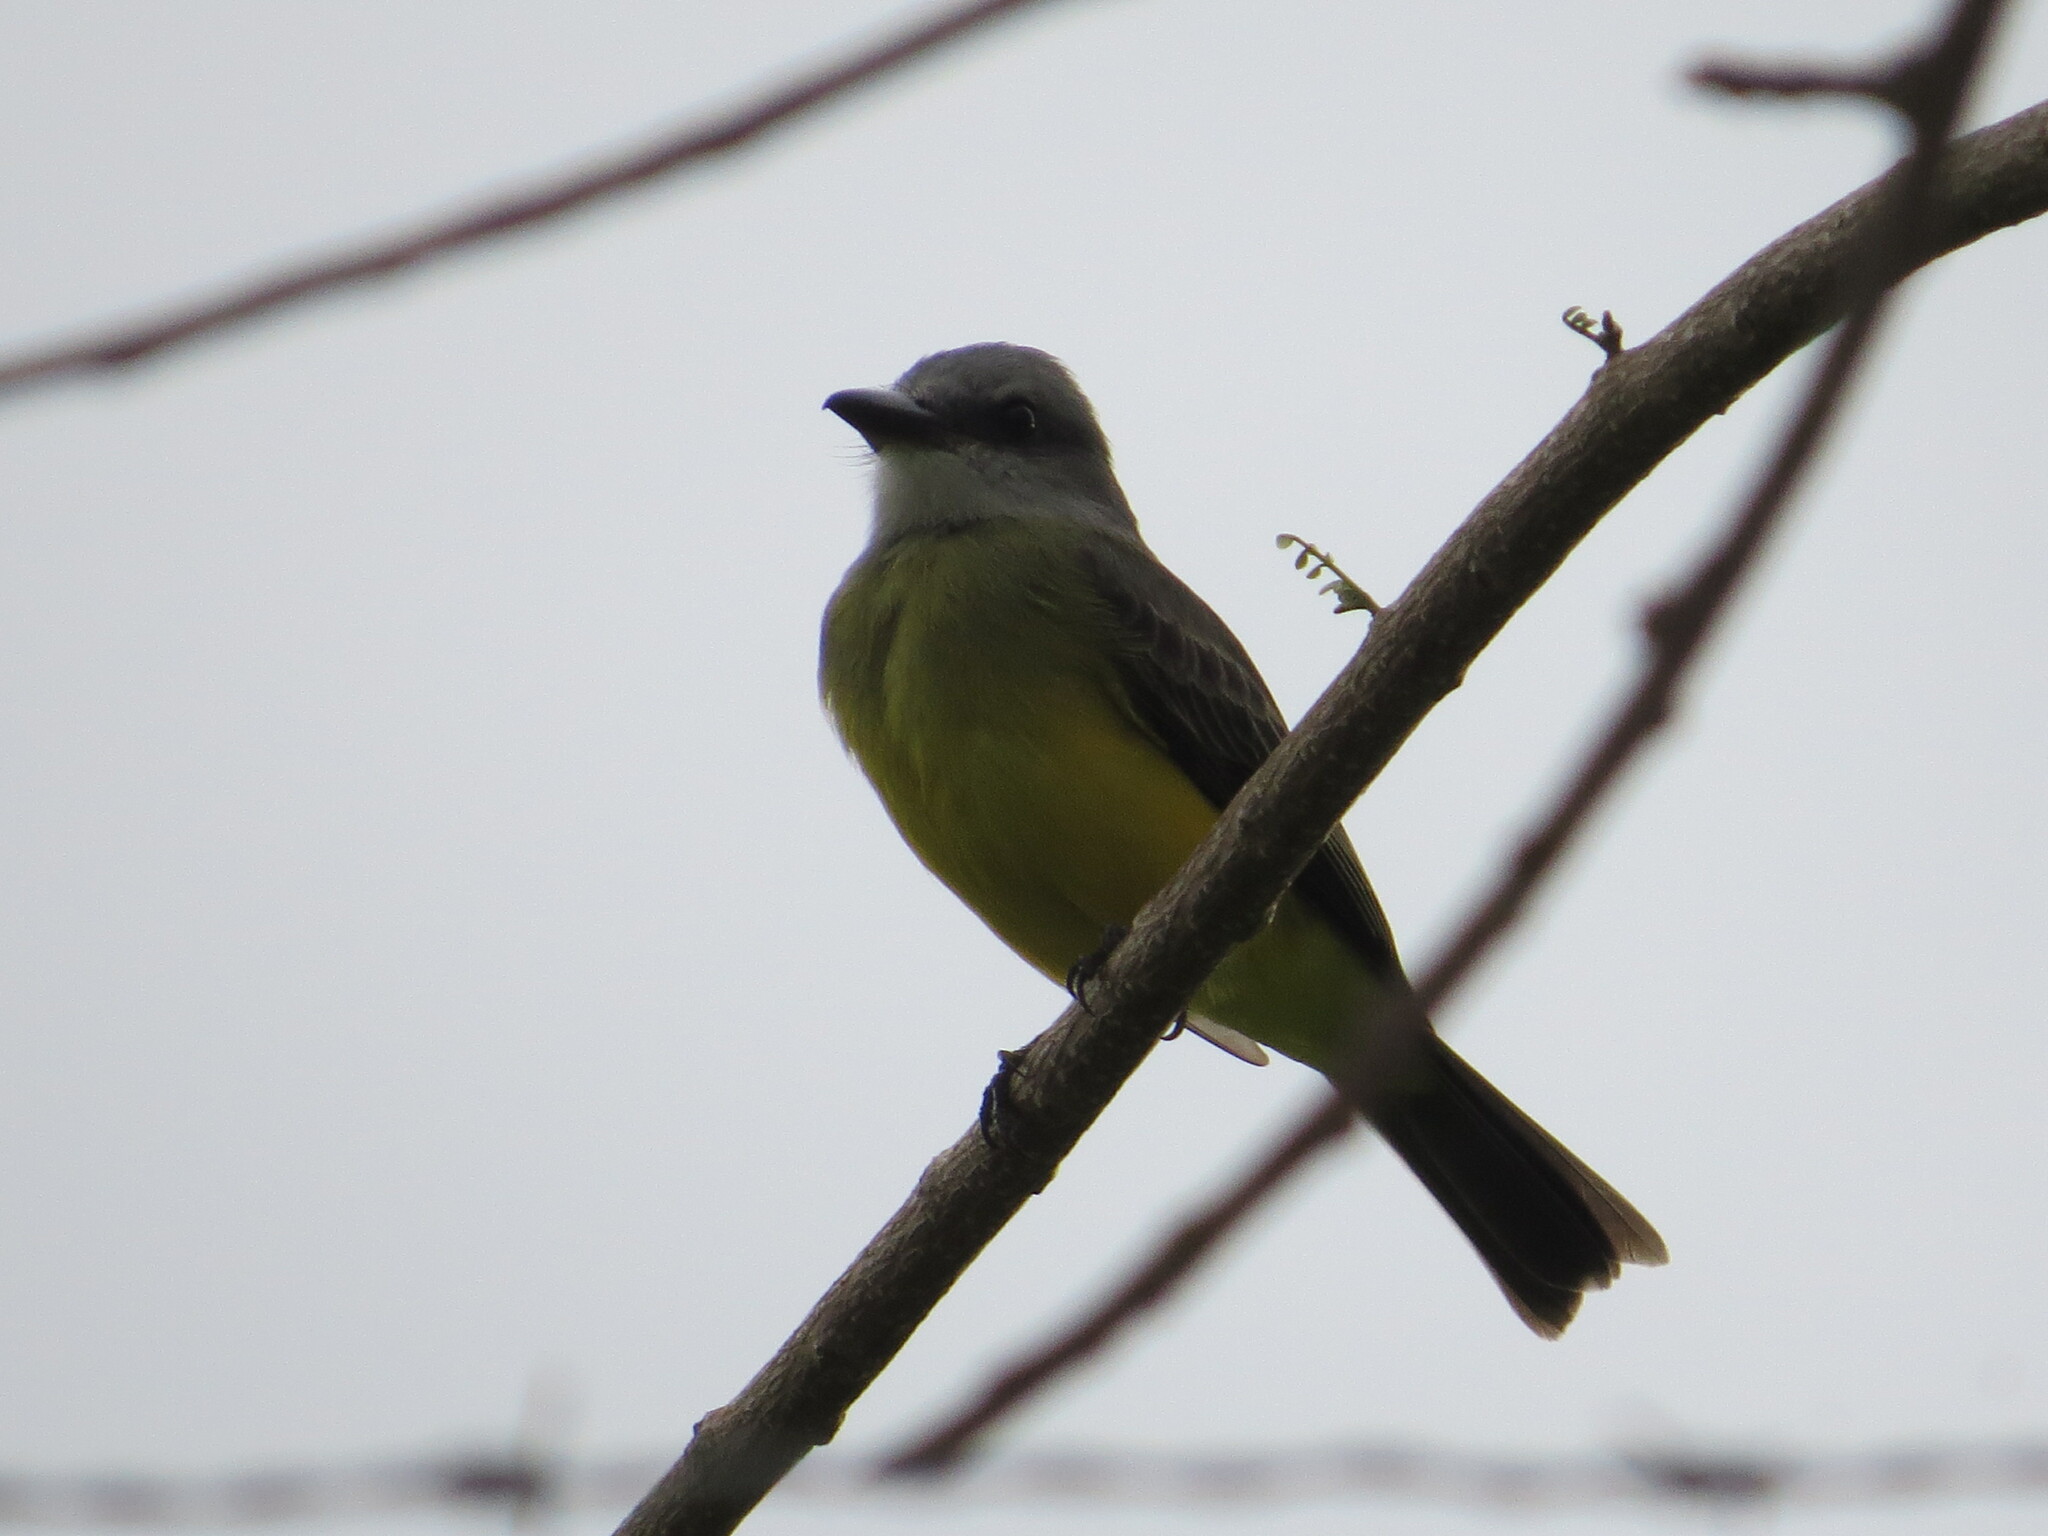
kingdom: Animalia
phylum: Chordata
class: Aves
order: Passeriformes
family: Tyrannidae
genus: Tyrannus
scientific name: Tyrannus melancholicus
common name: Tropical kingbird
